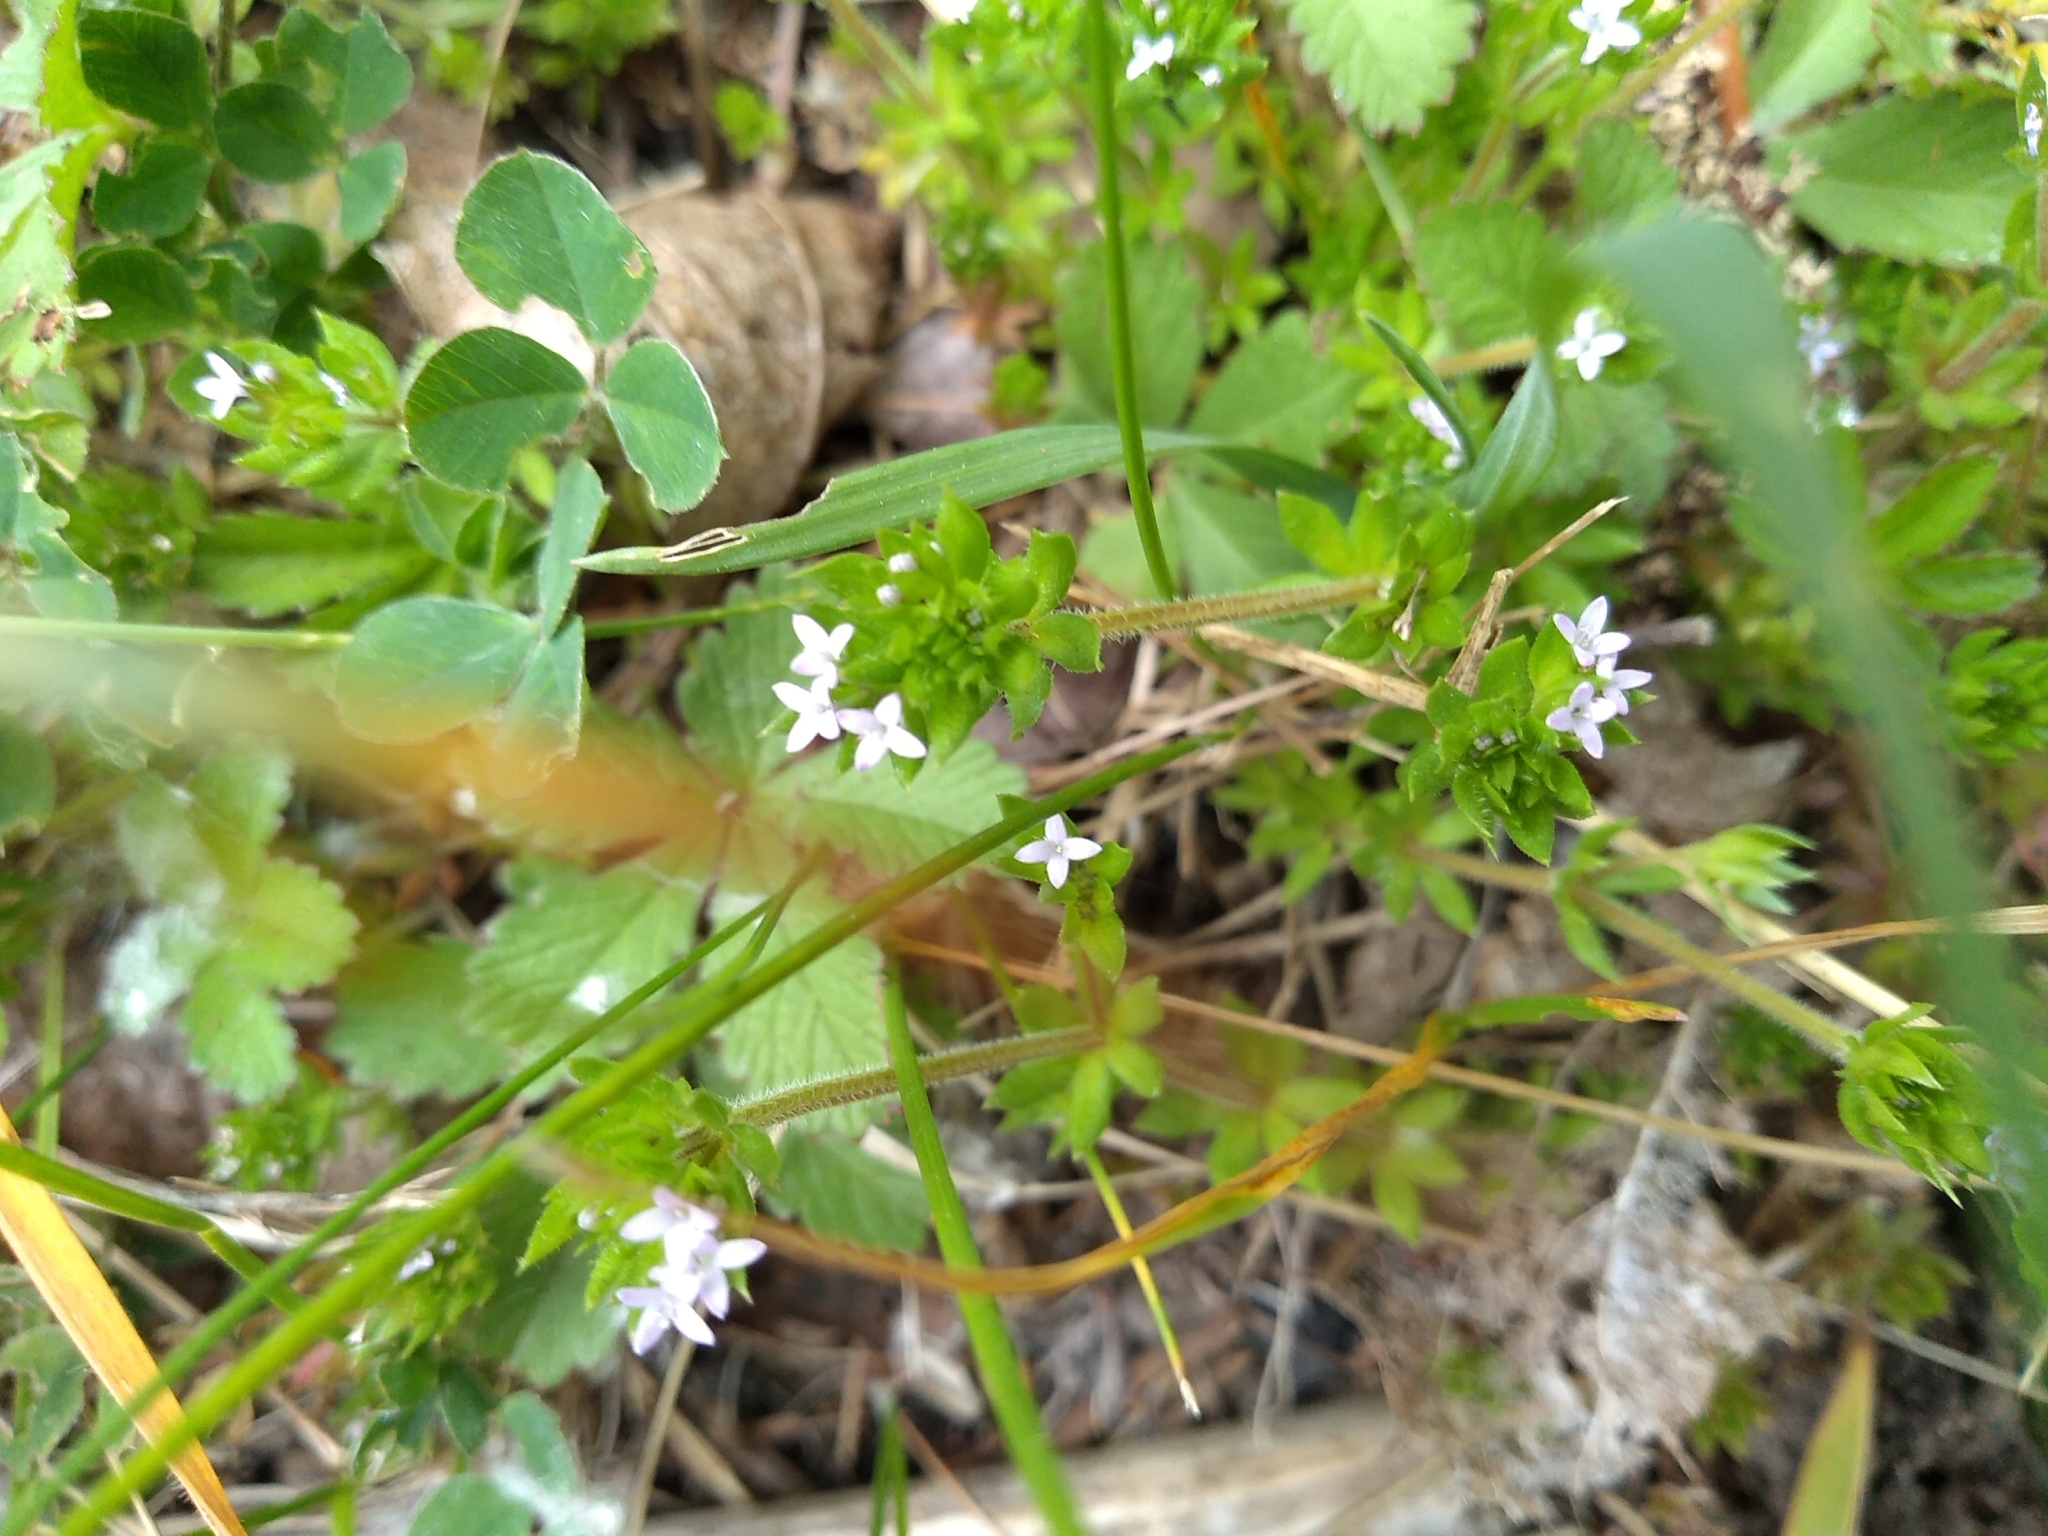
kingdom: Plantae
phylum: Tracheophyta
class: Magnoliopsida
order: Gentianales
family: Rubiaceae
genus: Sherardia
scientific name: Sherardia arvensis
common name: Field madder
